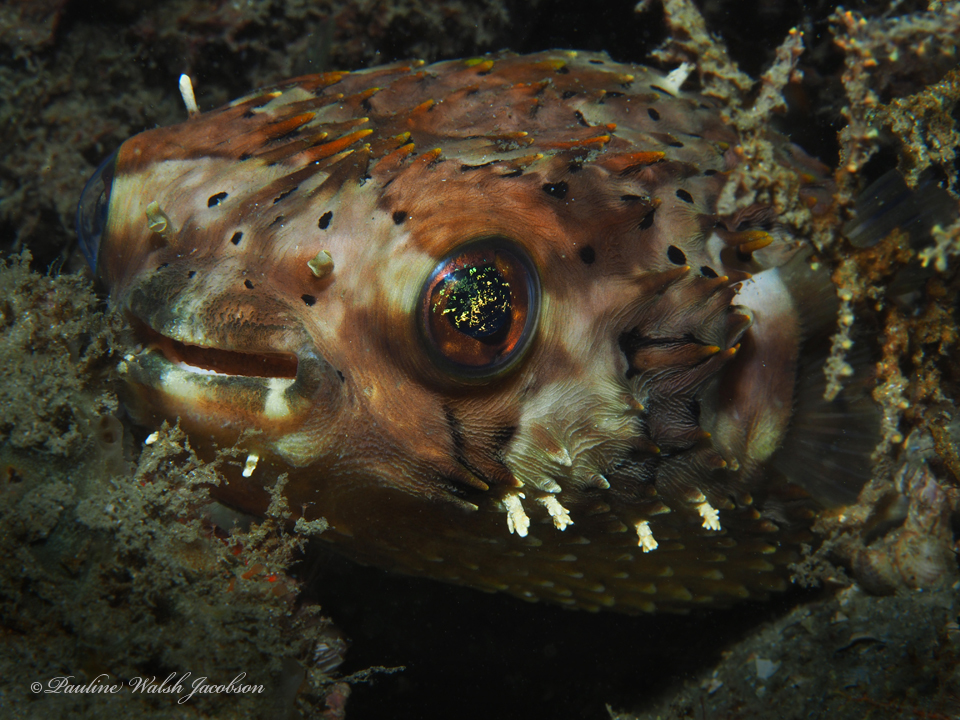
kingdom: Animalia
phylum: Chordata
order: Tetraodontiformes
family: Diodontidae
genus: Diodon
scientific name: Diodon holocanthus
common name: Balloonfish
